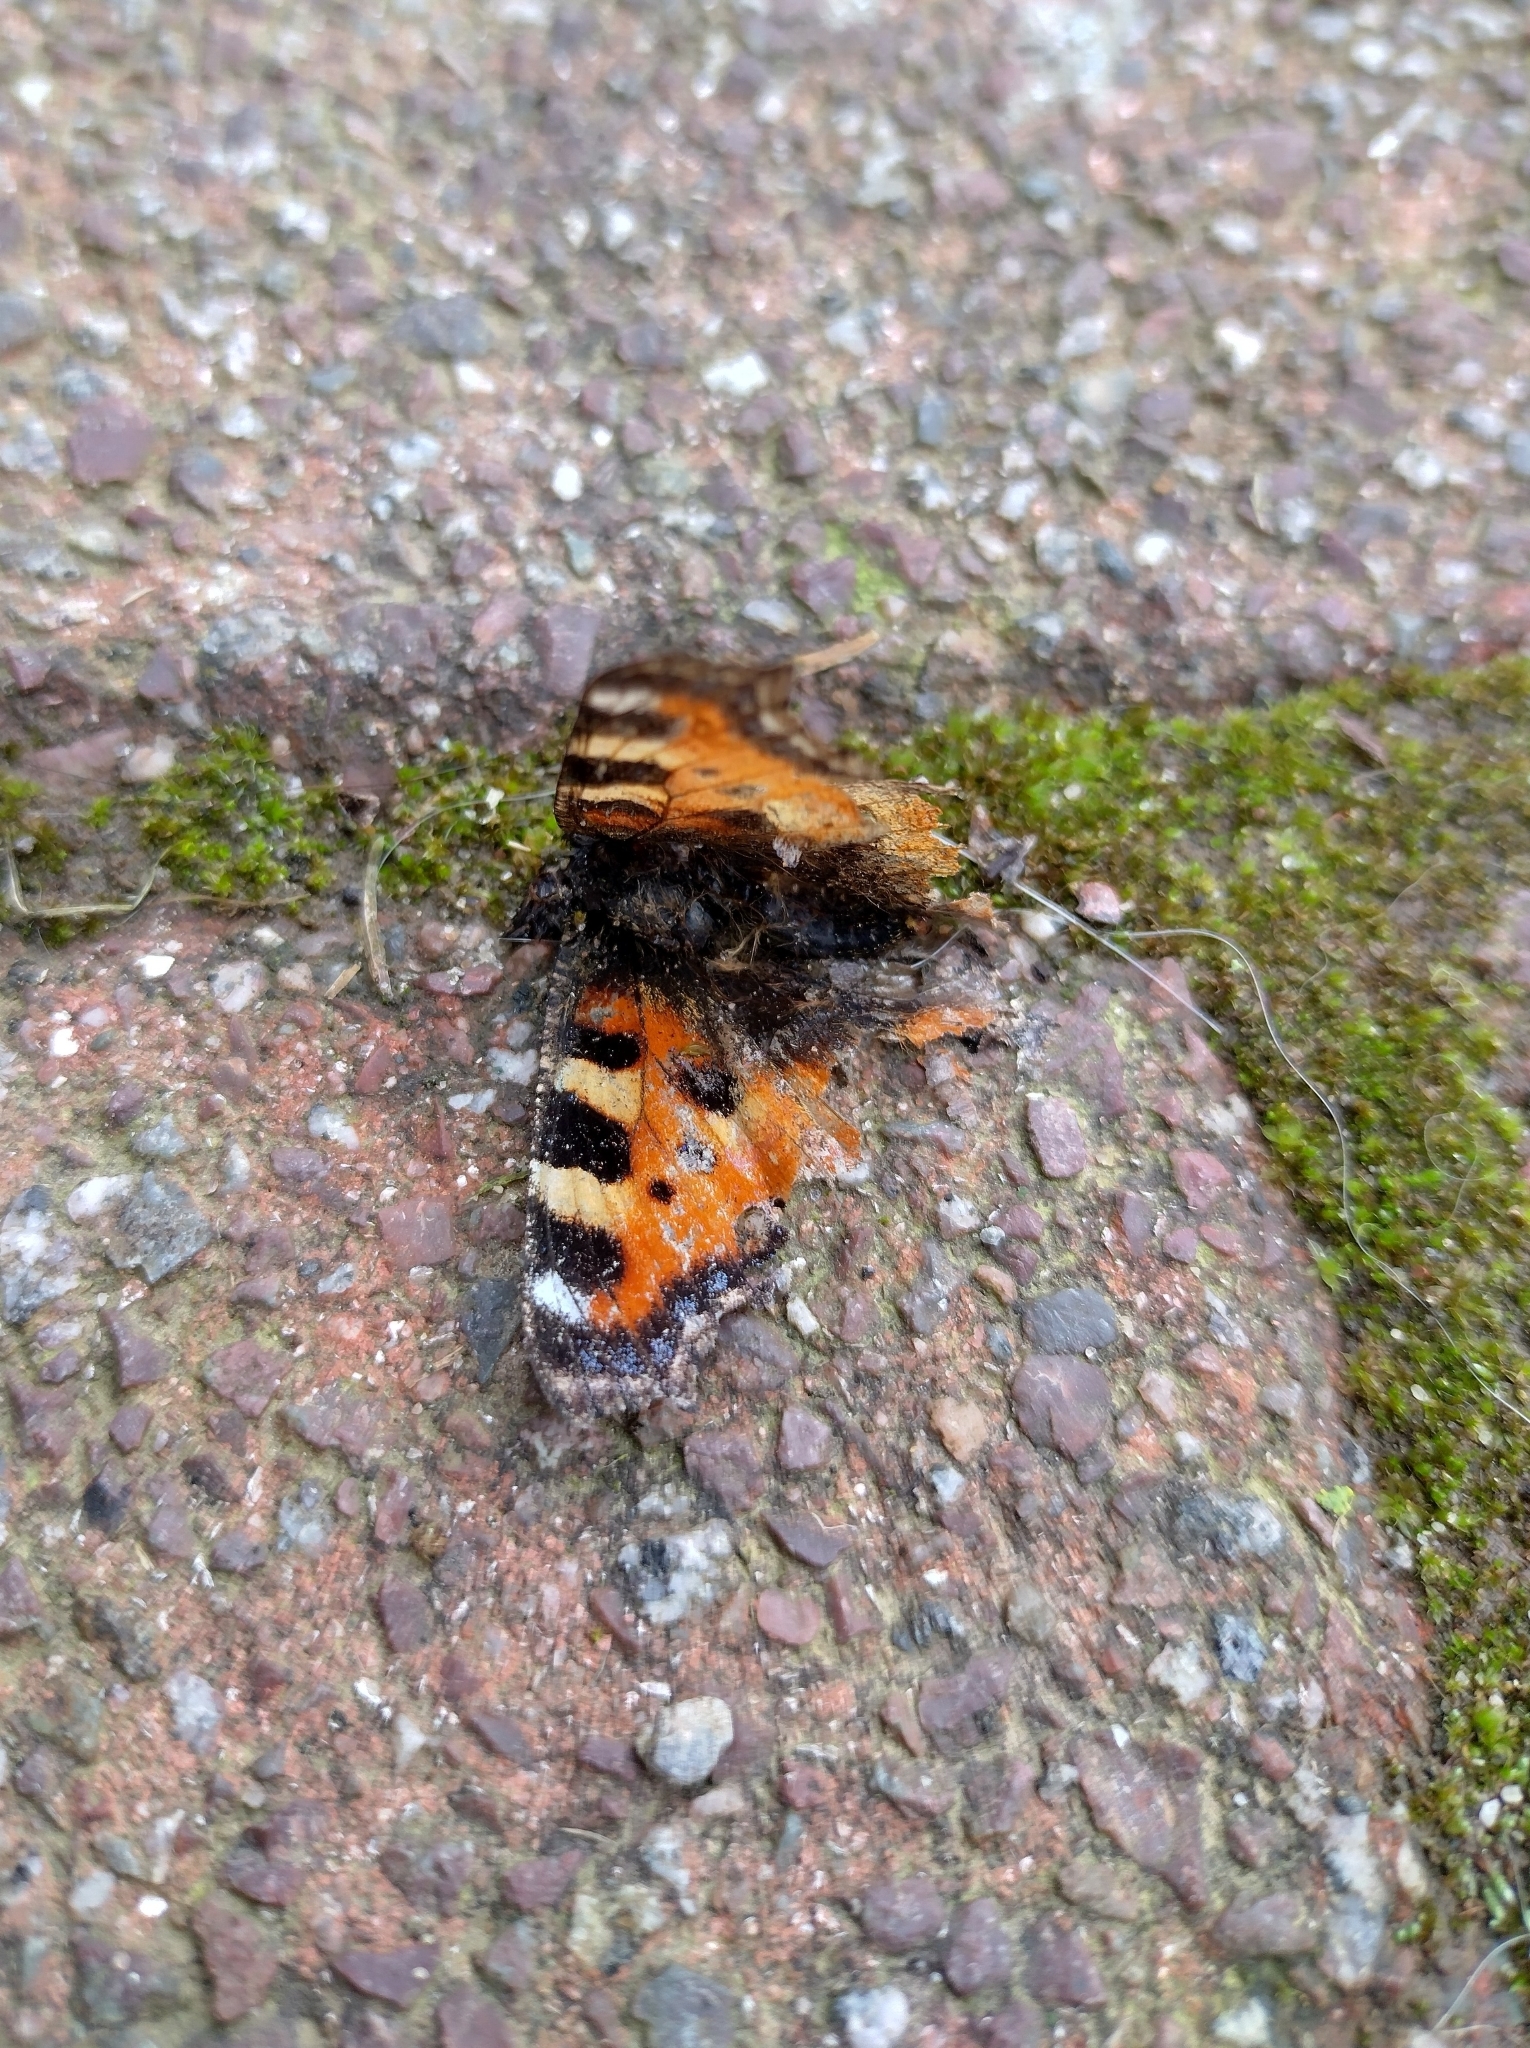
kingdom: Animalia
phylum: Arthropoda
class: Insecta
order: Lepidoptera
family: Nymphalidae
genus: Aglais
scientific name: Aglais urticae
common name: Small tortoiseshell
